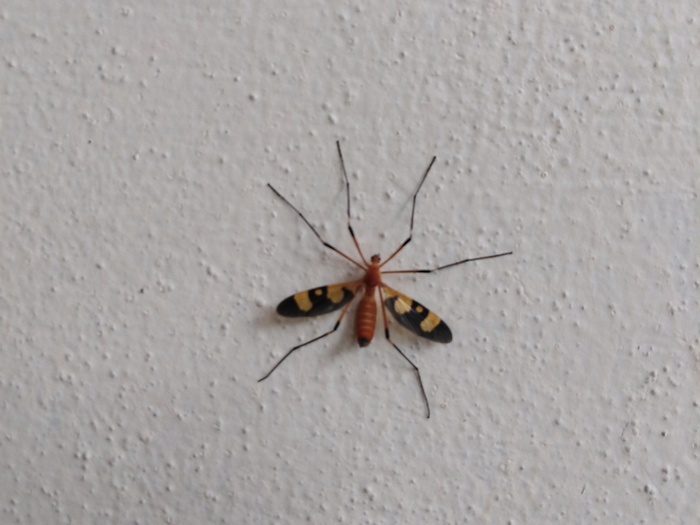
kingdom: Animalia
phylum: Arthropoda
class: Insecta
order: Diptera
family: Tipulidae
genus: Pselliophora
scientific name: Pselliophora laeta
